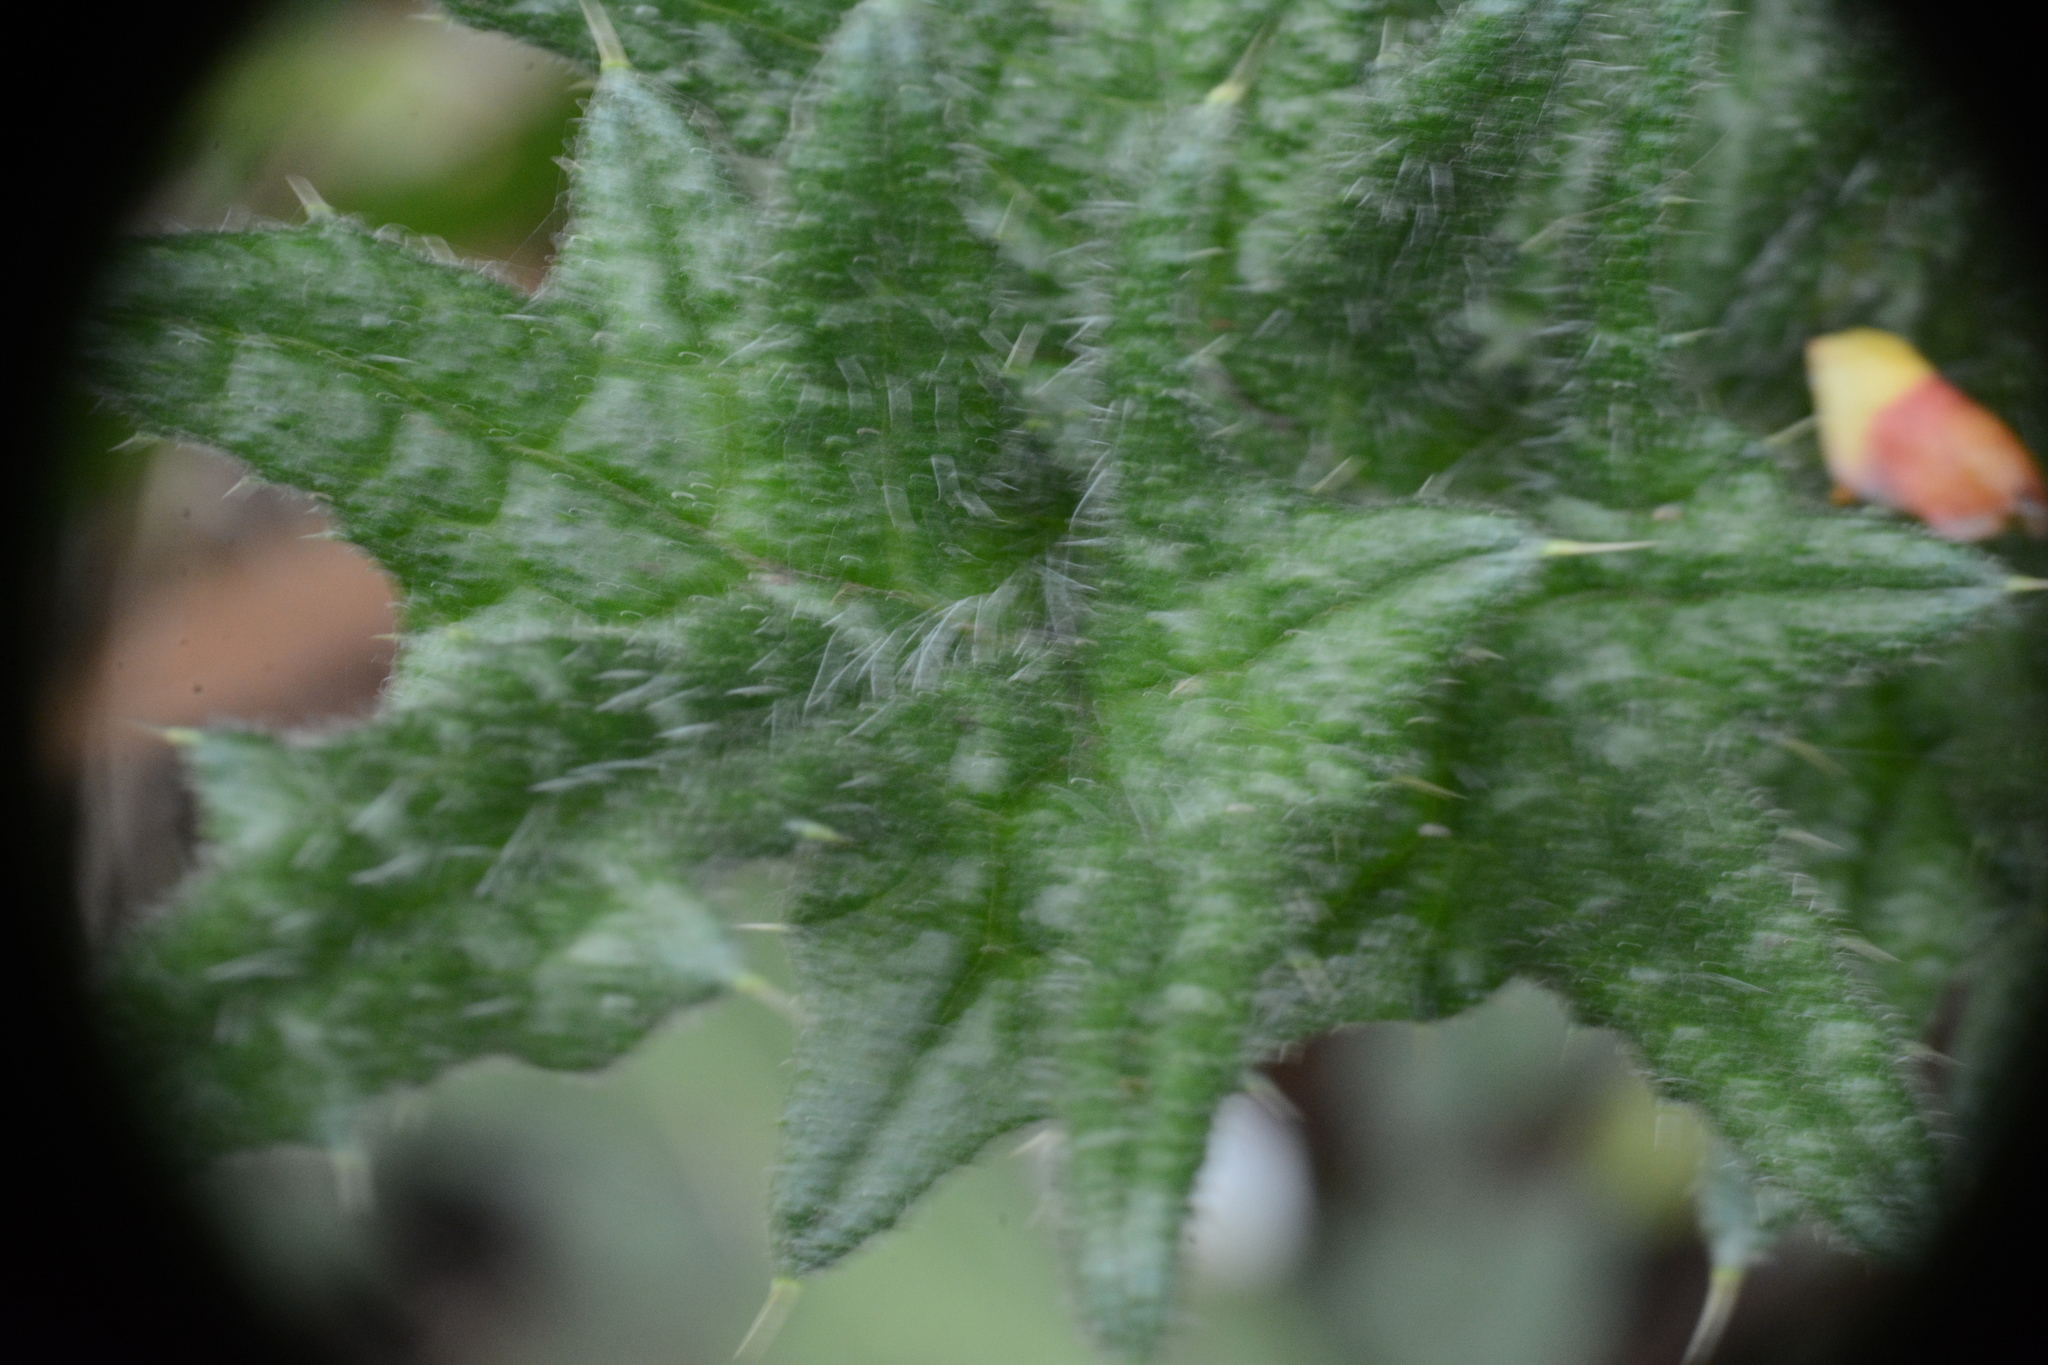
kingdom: Plantae
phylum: Tracheophyta
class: Magnoliopsida
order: Asterales
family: Asteraceae
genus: Cirsium
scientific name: Cirsium vulgare
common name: Bull thistle
